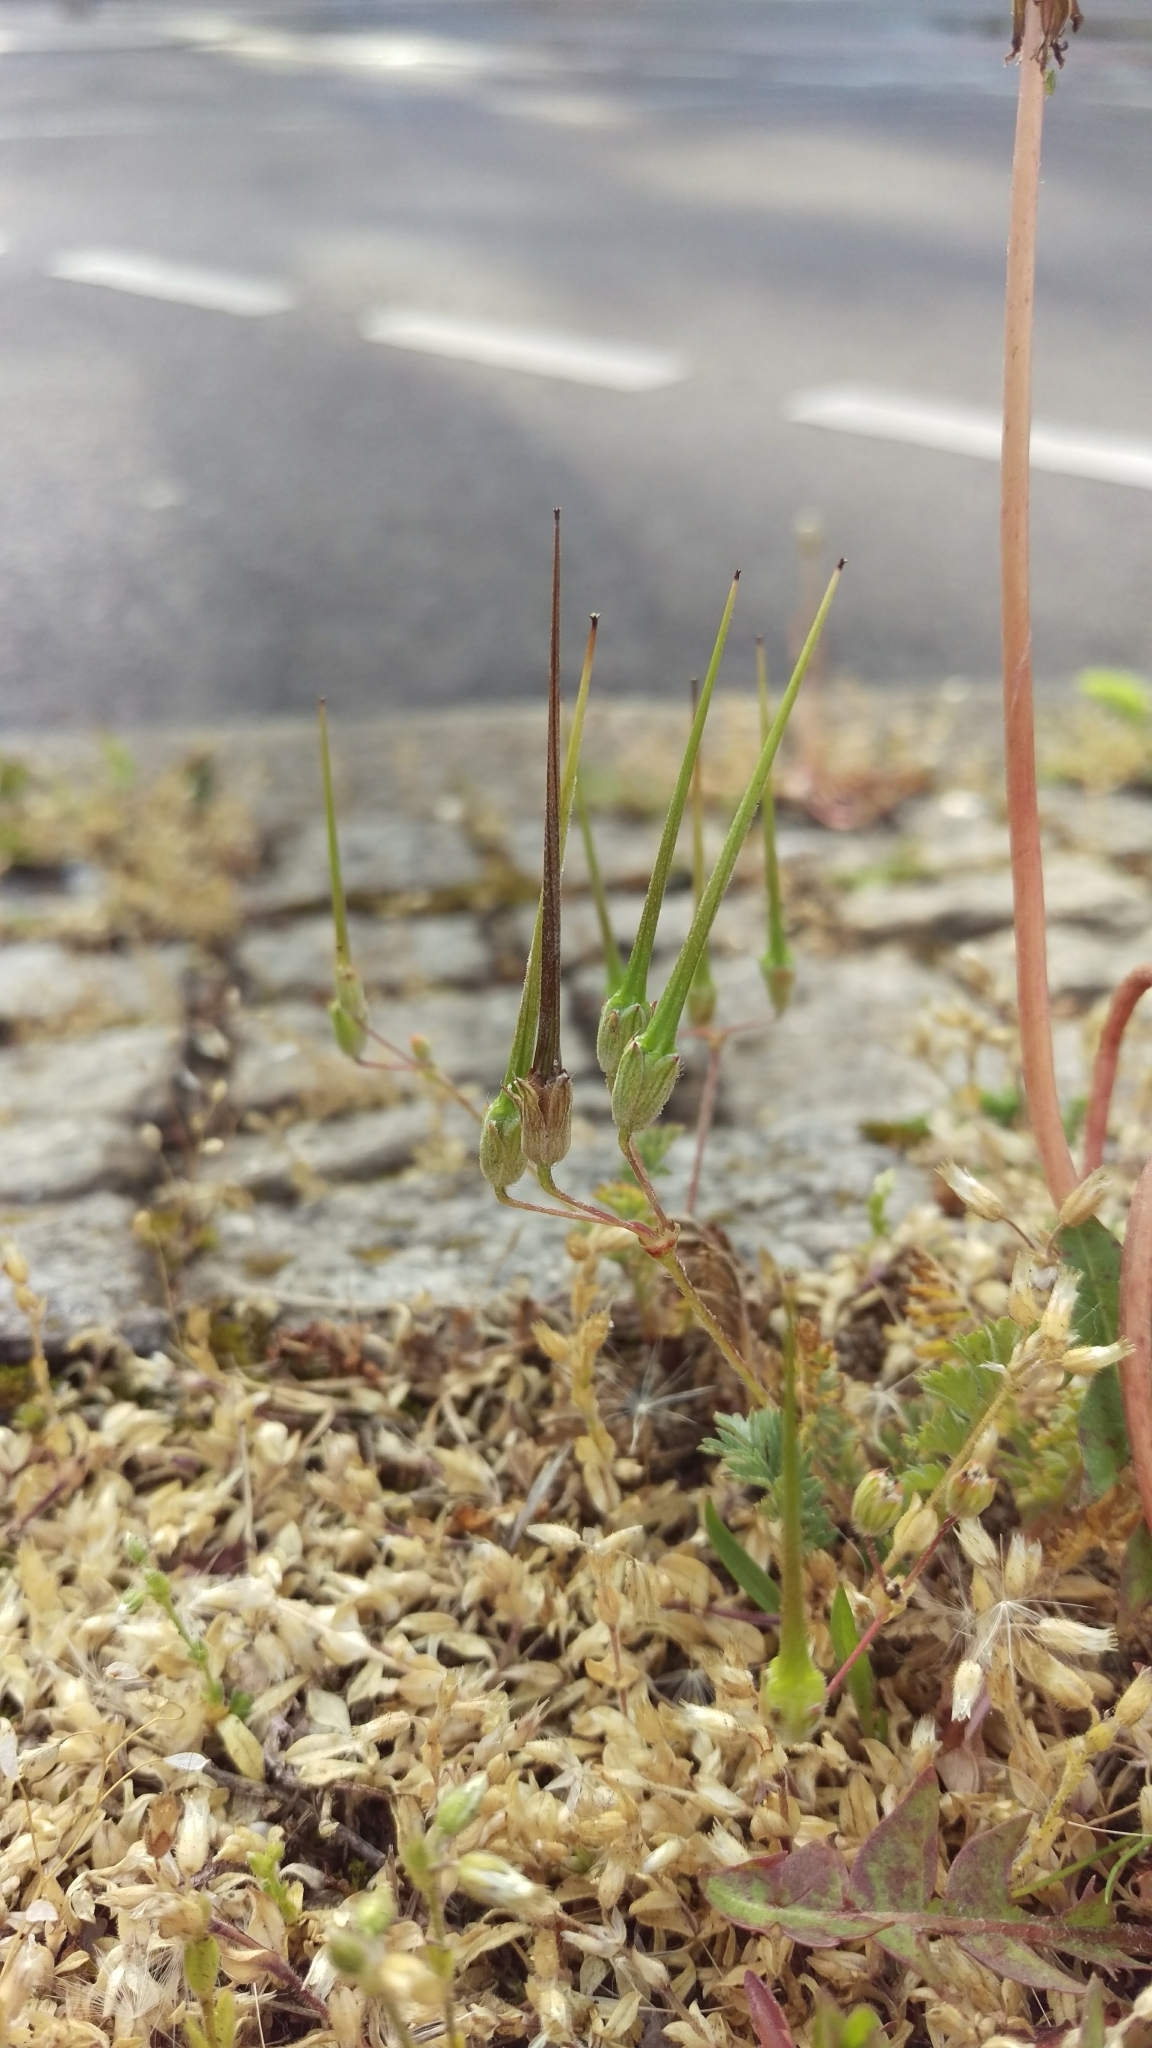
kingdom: Plantae
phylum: Tracheophyta
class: Magnoliopsida
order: Geraniales
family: Geraniaceae
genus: Erodium
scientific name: Erodium cicutarium
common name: Common stork's-bill
